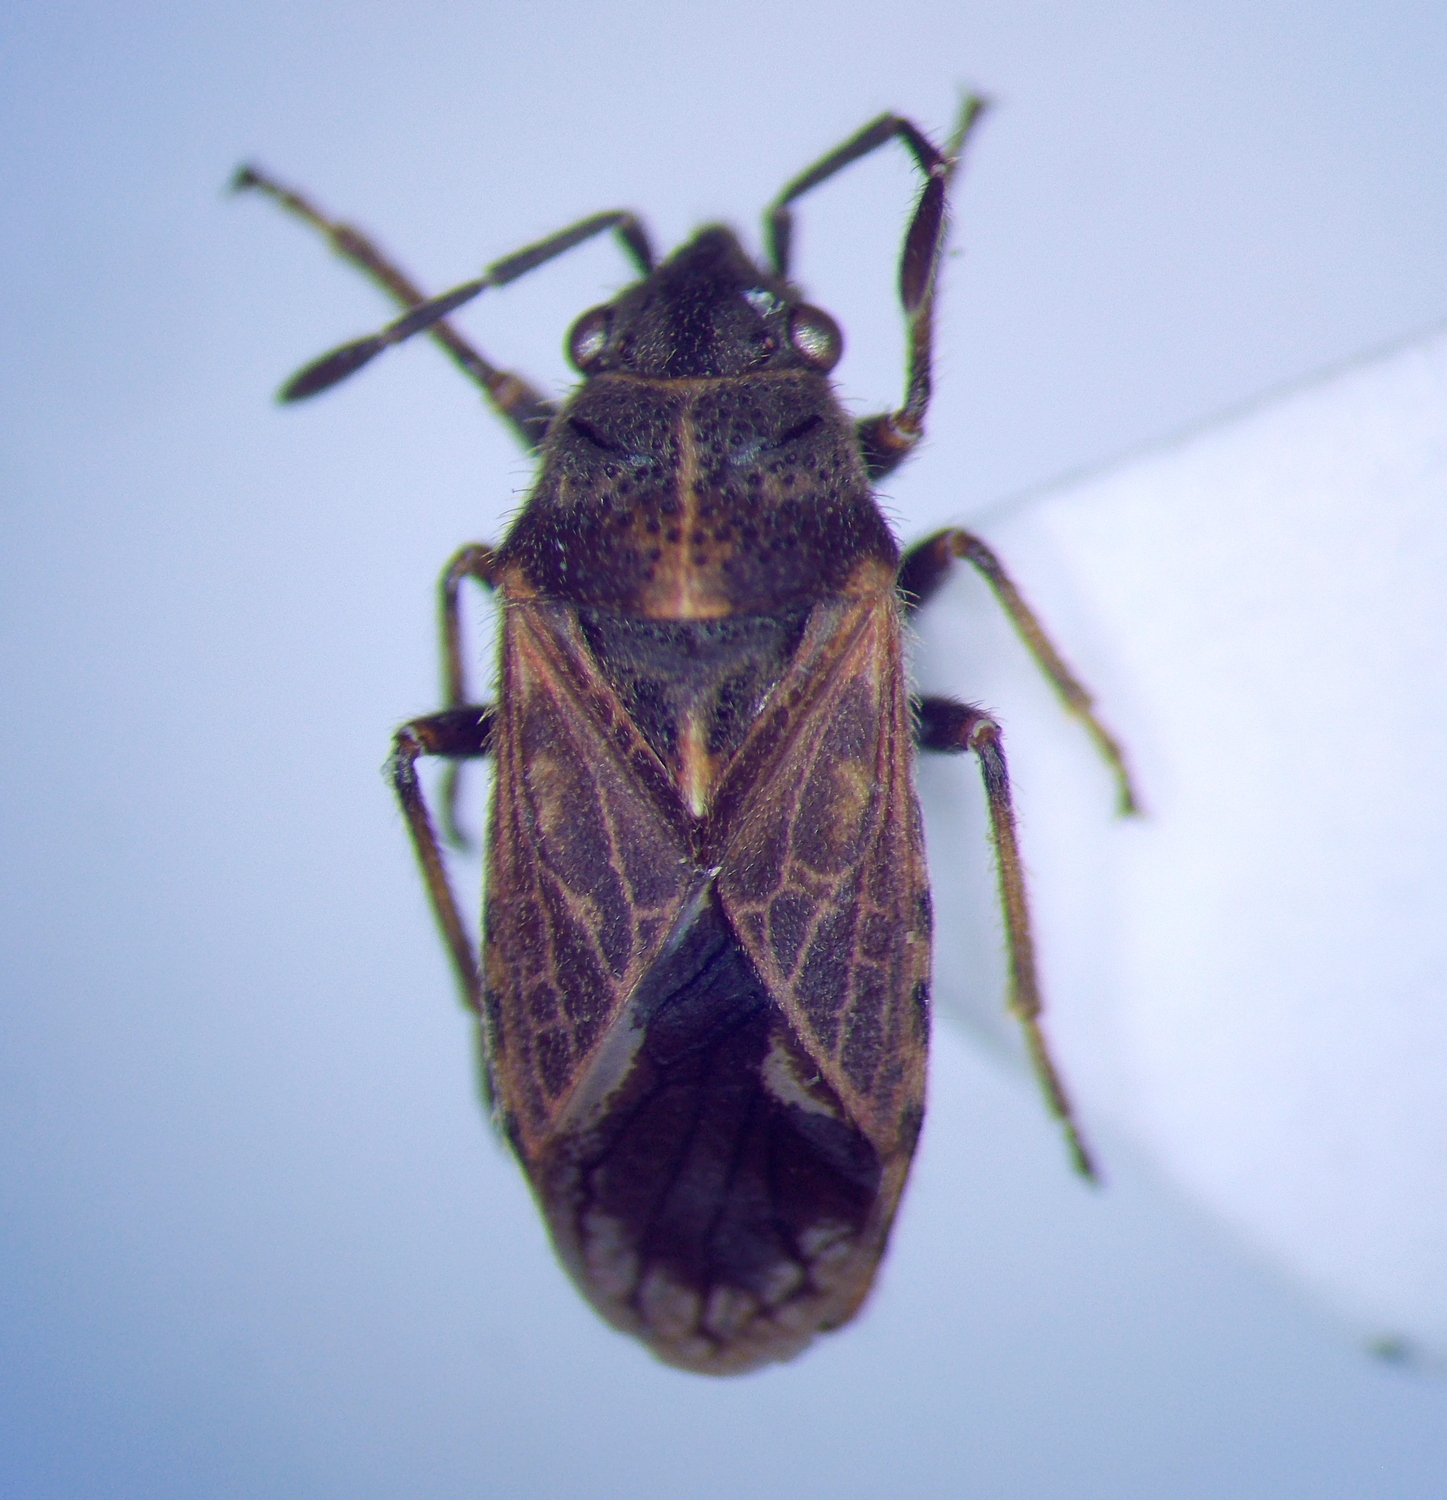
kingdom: Animalia
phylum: Arthropoda
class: Insecta
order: Hemiptera
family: Lygaeidae
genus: Lygaeosoma
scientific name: Lygaeosoma sardeum
